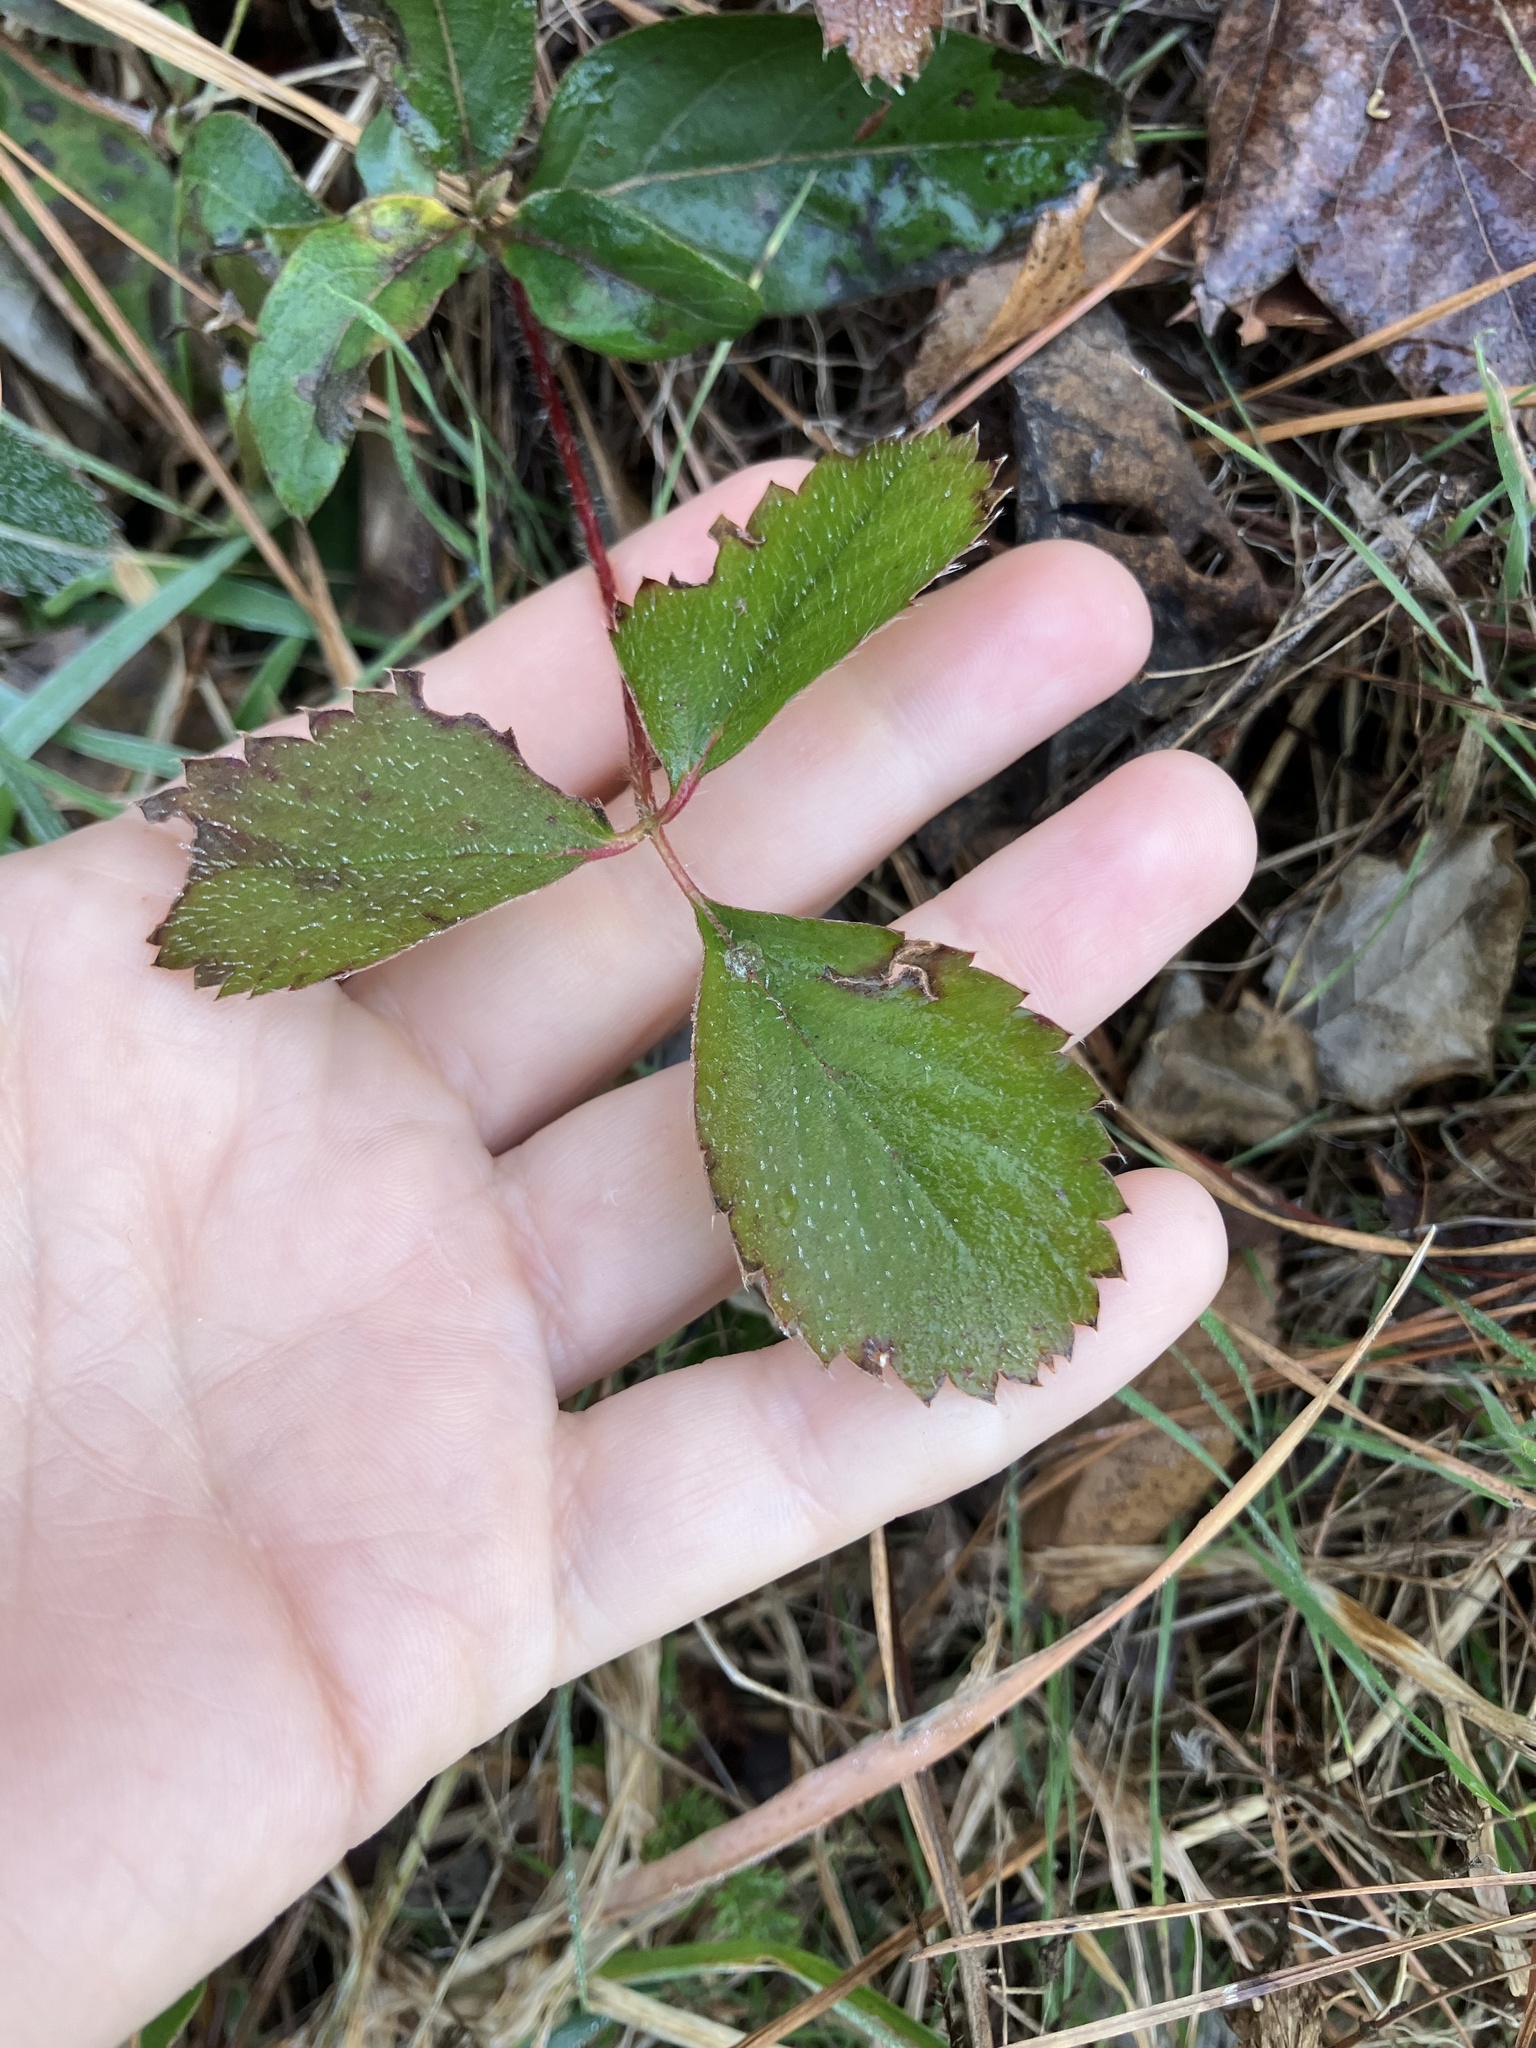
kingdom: Plantae
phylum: Tracheophyta
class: Magnoliopsida
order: Rosales
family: Rosaceae
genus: Fragaria
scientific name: Fragaria virginiana
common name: Thickleaved wild strawberry
